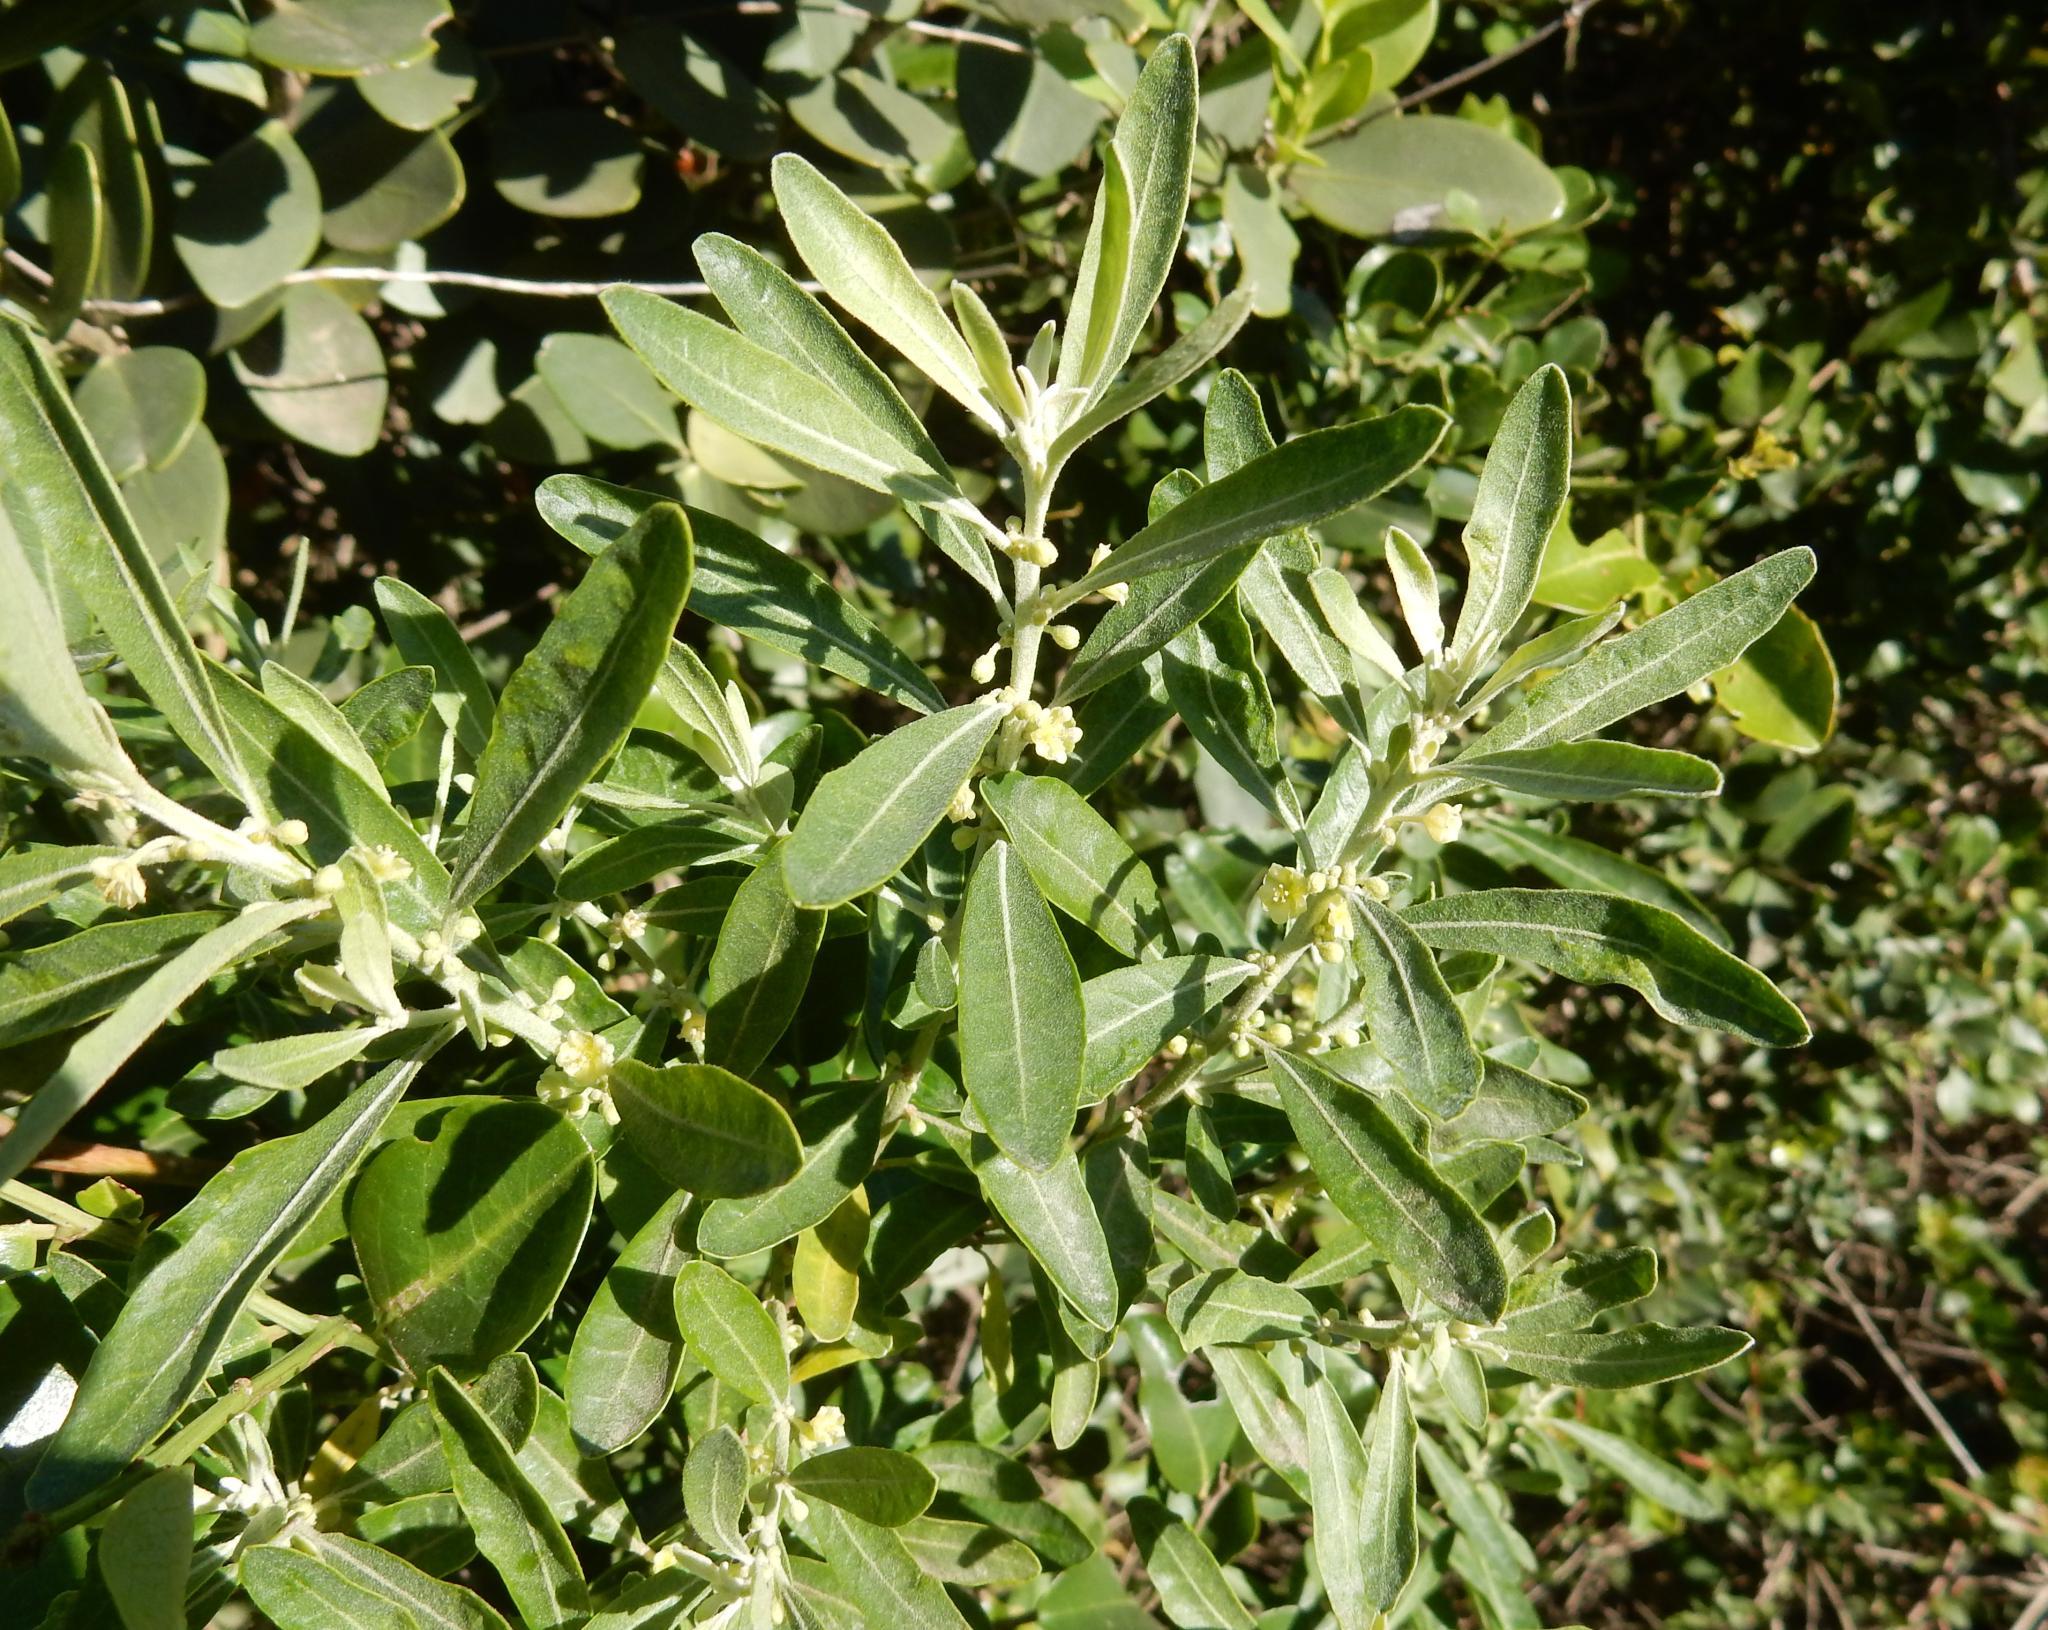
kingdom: Plantae
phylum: Tracheophyta
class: Magnoliopsida
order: Malpighiales
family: Peraceae
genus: Clutia
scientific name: Clutia daphnoides
